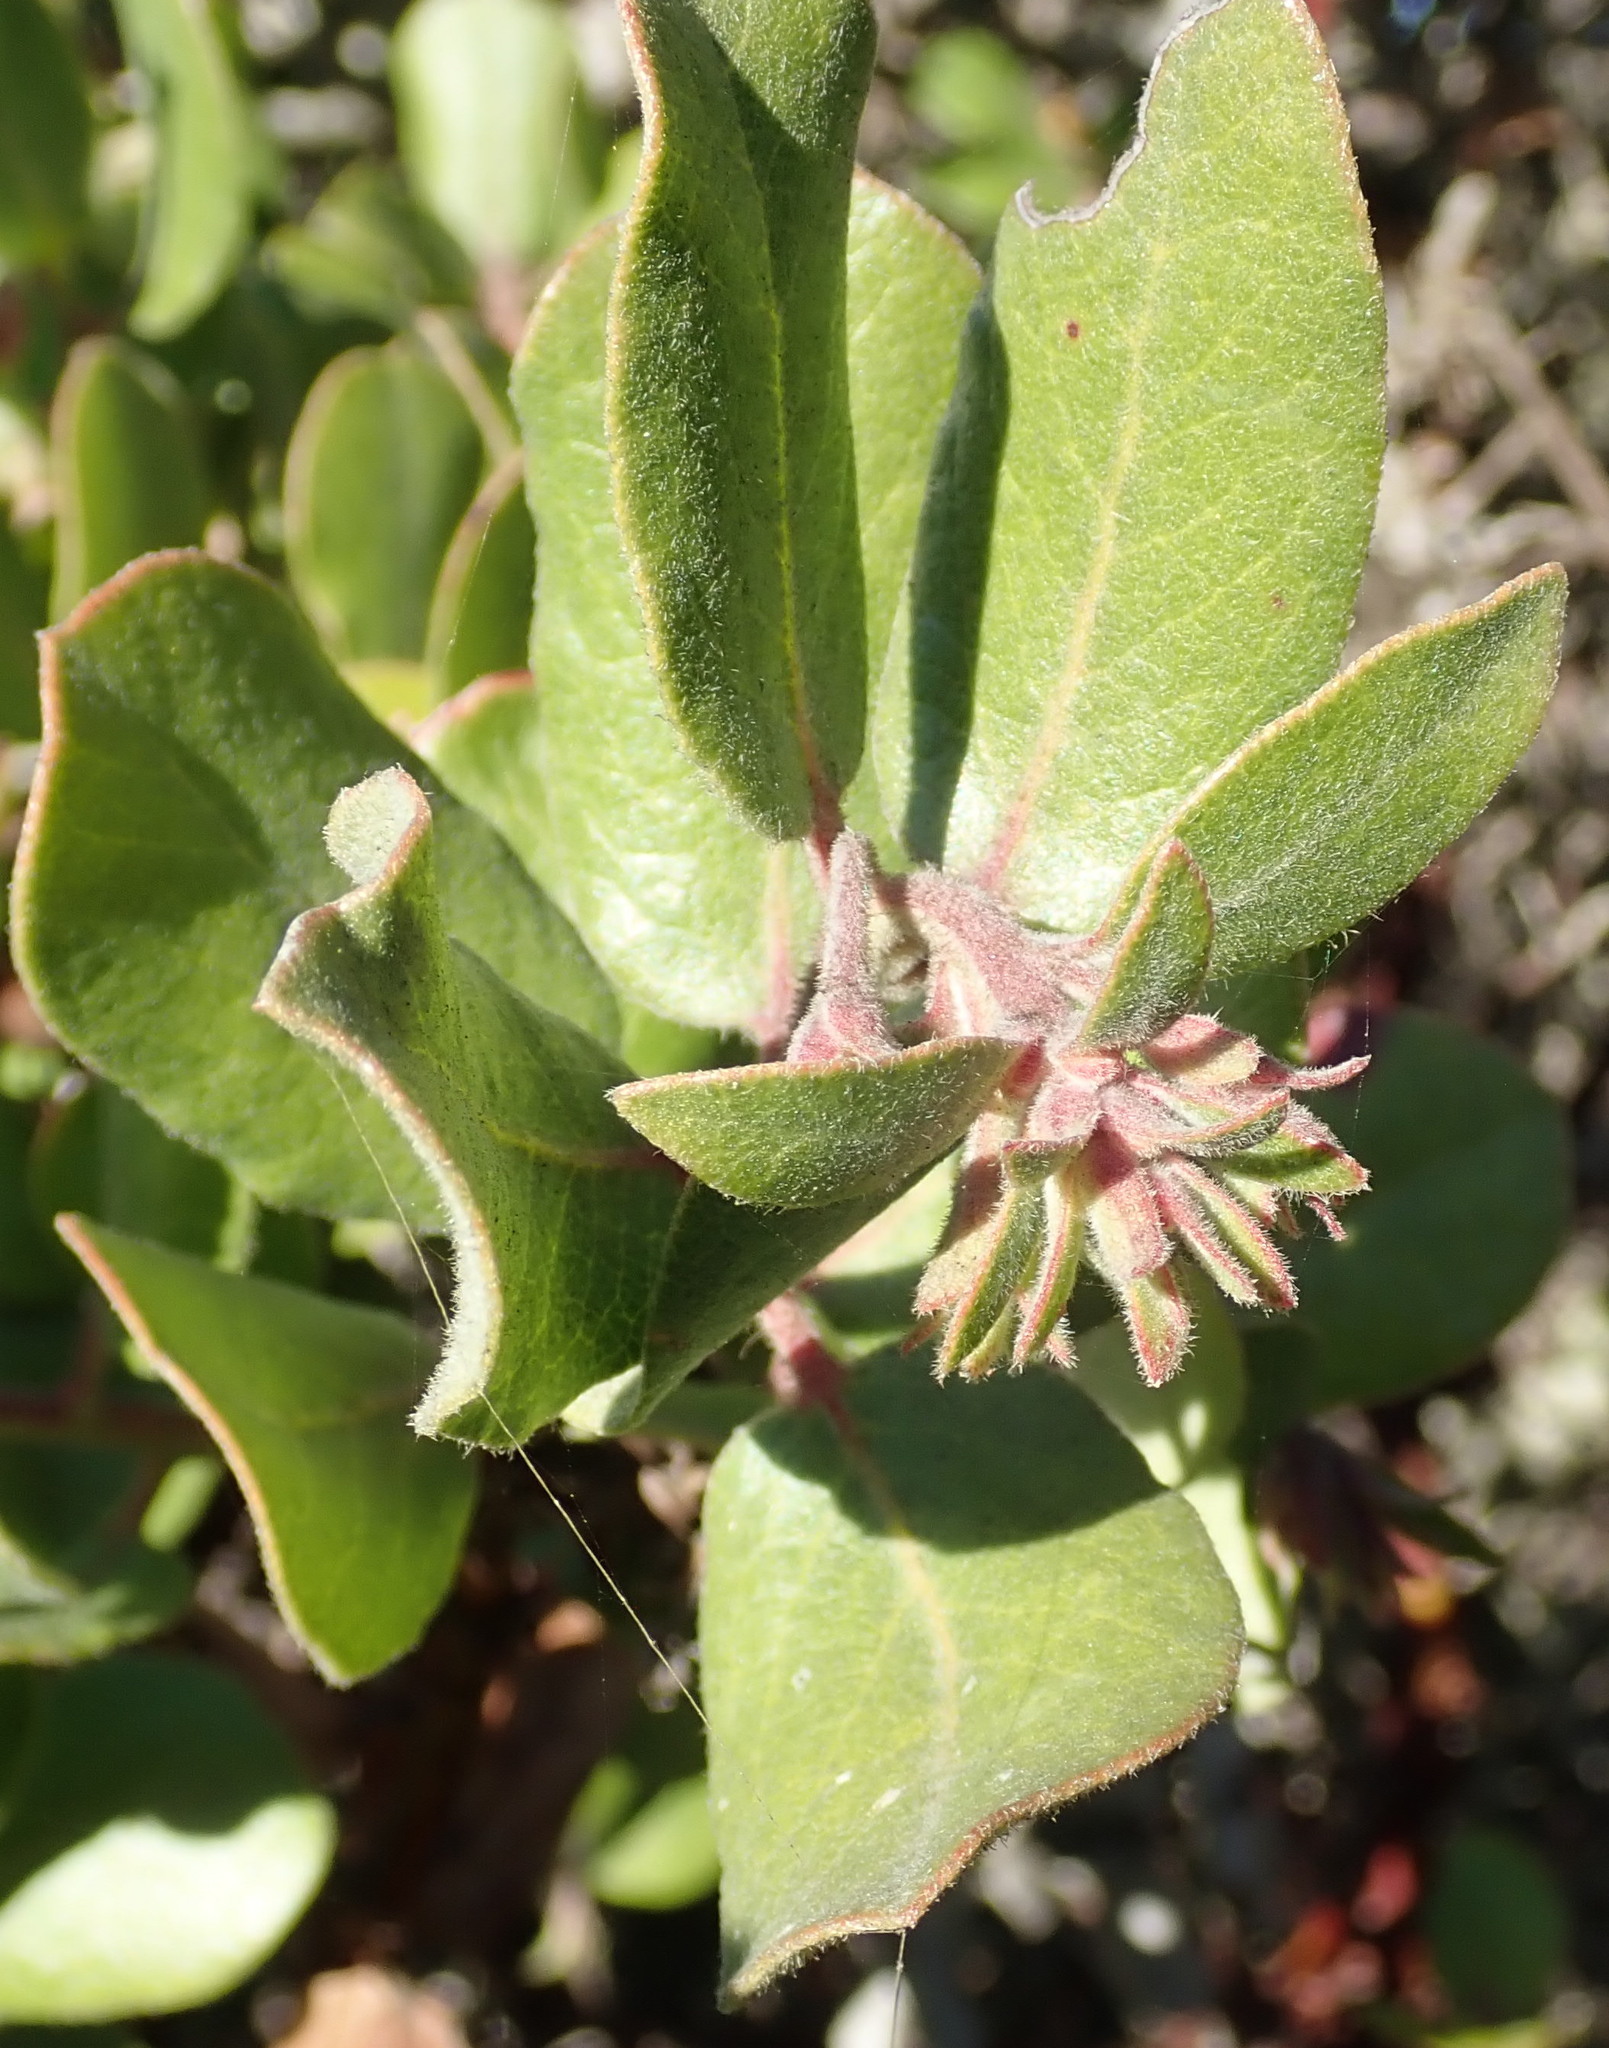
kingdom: Plantae
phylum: Tracheophyta
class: Magnoliopsida
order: Ericales
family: Ericaceae
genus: Arctostaphylos
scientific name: Arctostaphylos tomentosa
